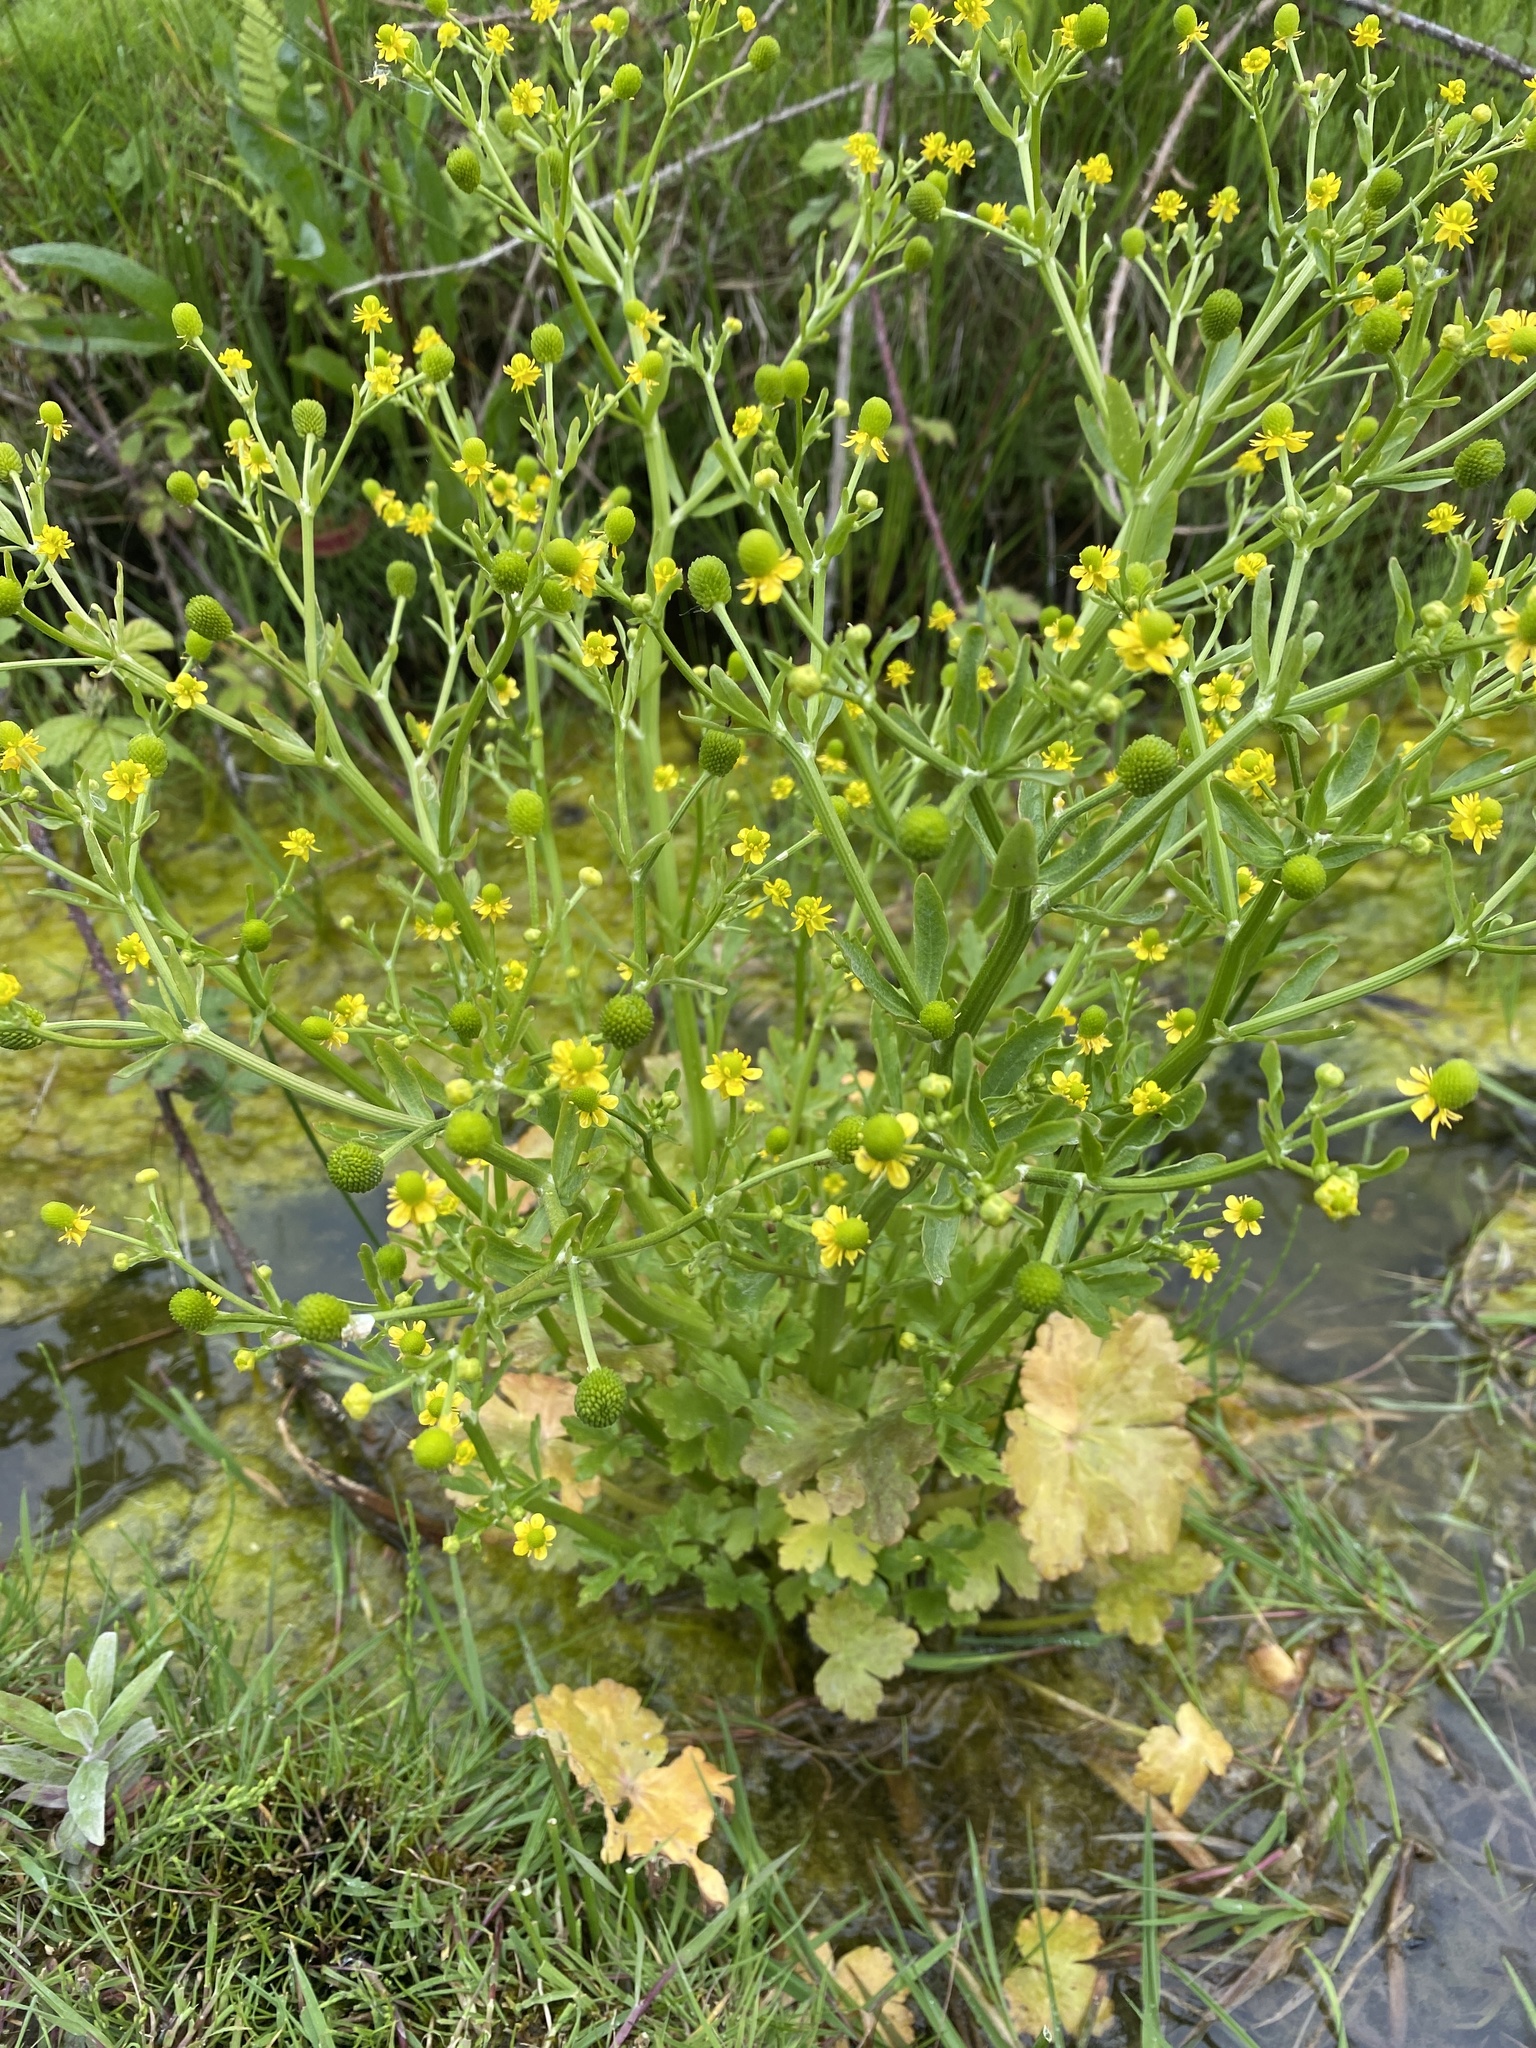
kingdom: Plantae
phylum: Tracheophyta
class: Magnoliopsida
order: Ranunculales
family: Ranunculaceae
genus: Ranunculus
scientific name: Ranunculus sceleratus
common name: Celery-leaved buttercup
